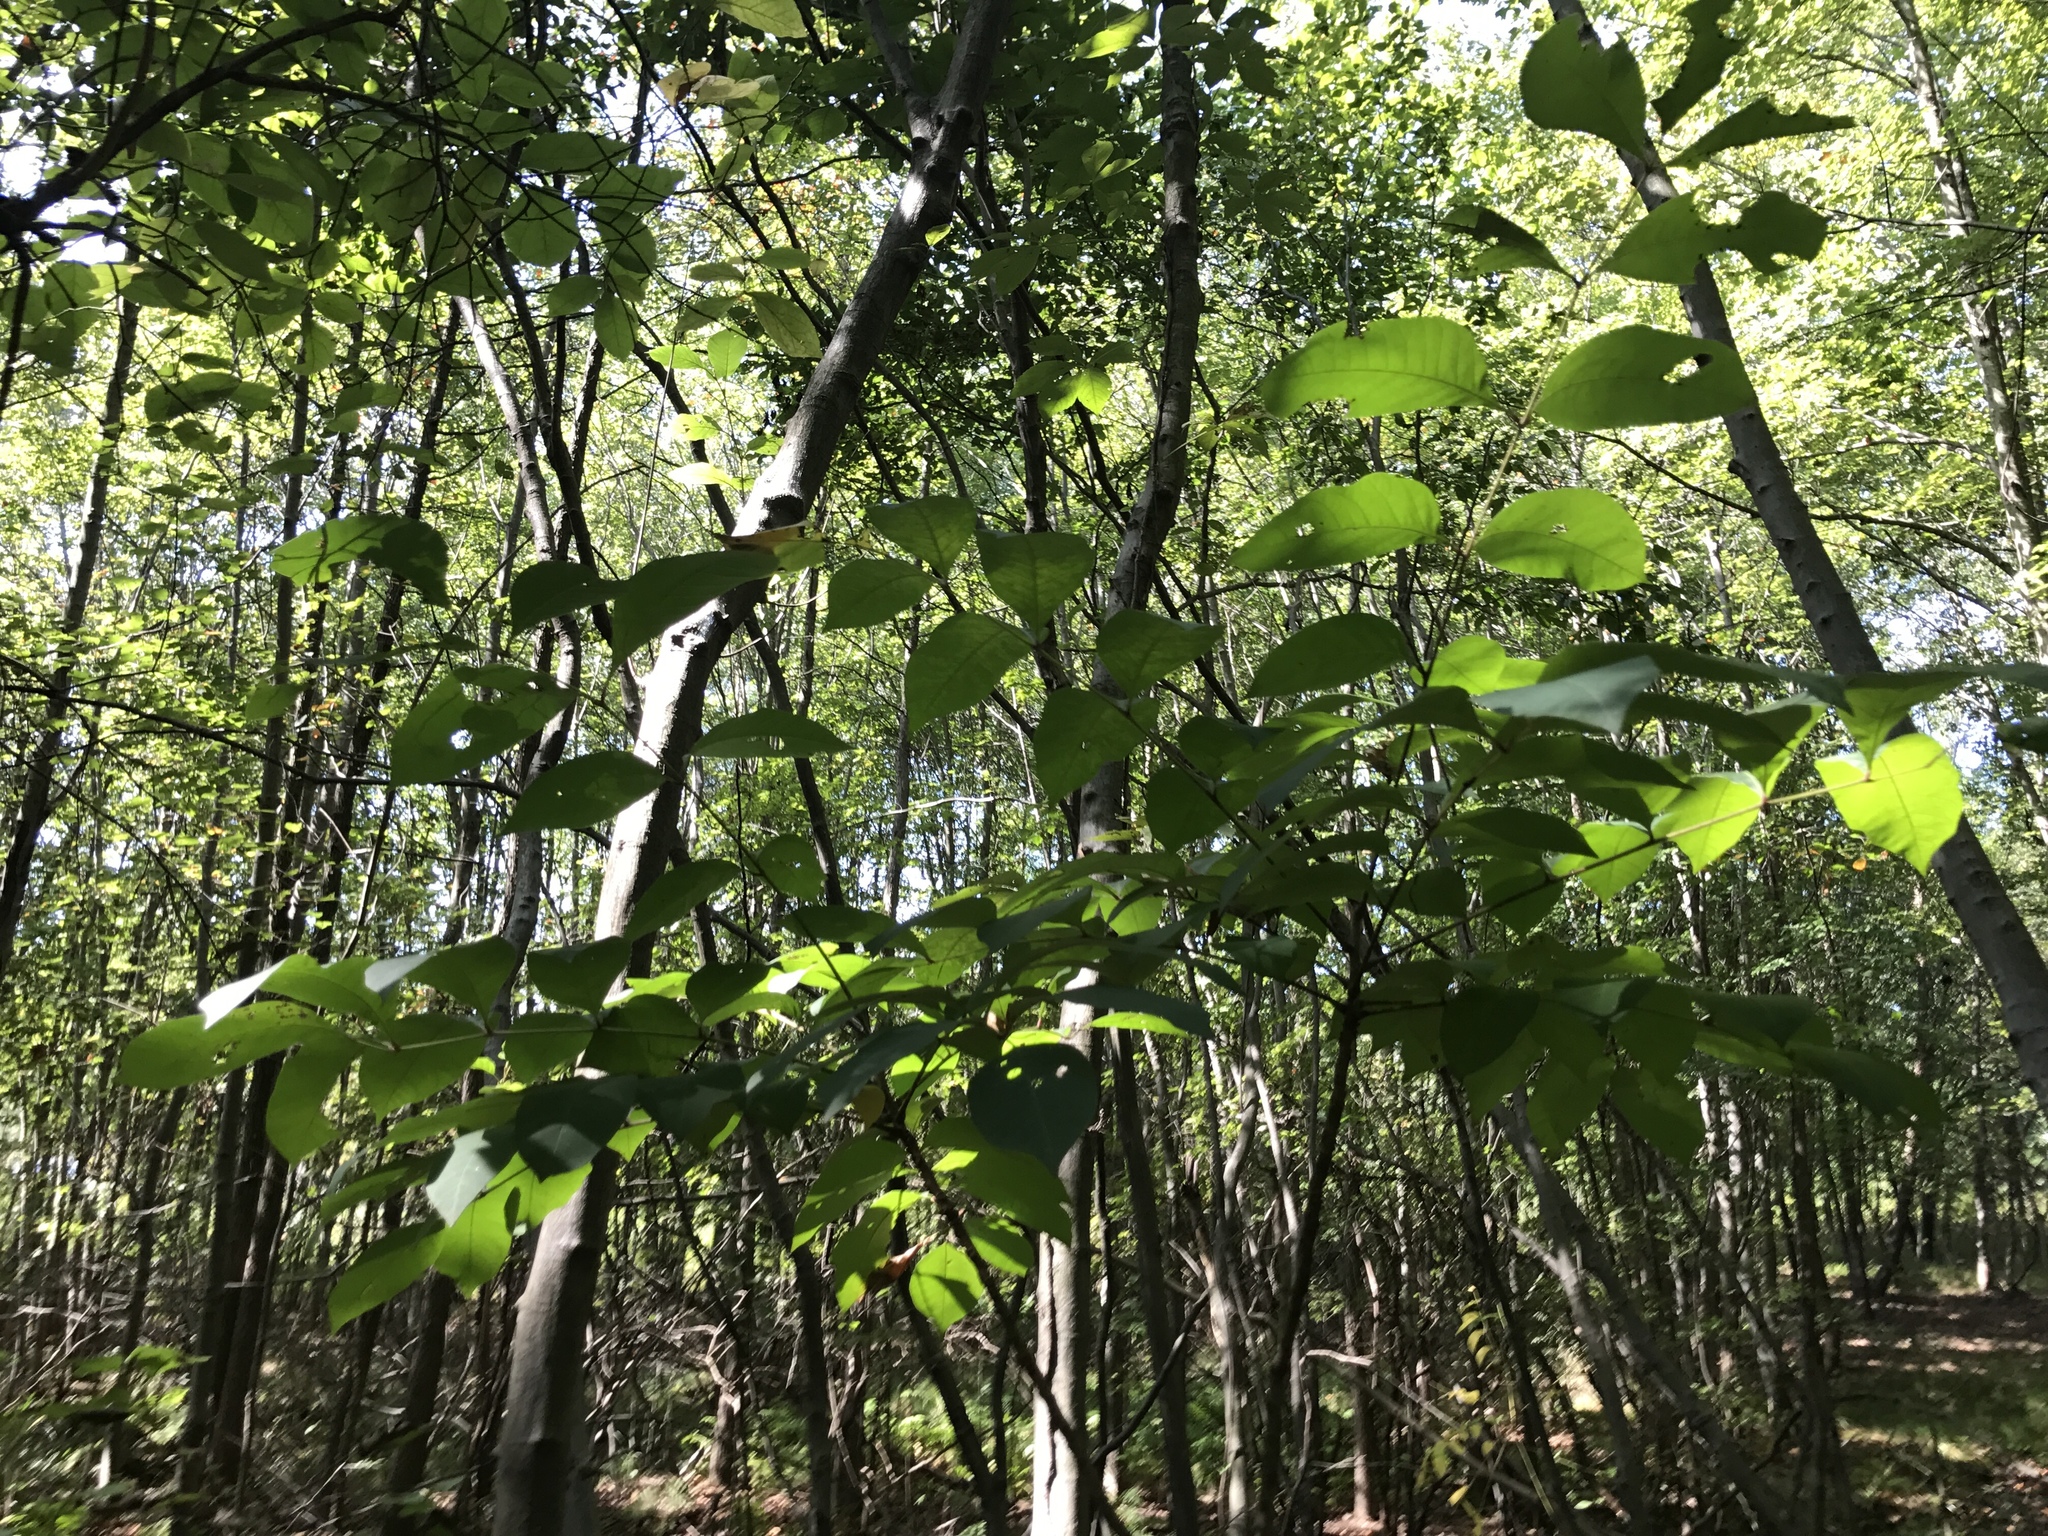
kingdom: Plantae
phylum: Tracheophyta
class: Magnoliopsida
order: Sapindales
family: Anacardiaceae
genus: Toxicodendron
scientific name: Toxicodendron vernix
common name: Poison sumac
